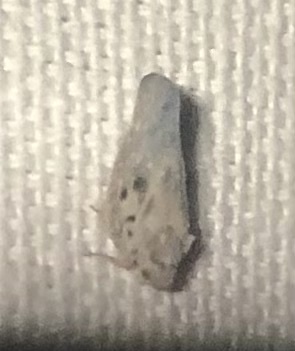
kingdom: Animalia
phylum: Arthropoda
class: Insecta
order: Hemiptera
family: Flatidae
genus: Metcalfa
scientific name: Metcalfa pruinosa
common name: Citrus flatid planthopper
